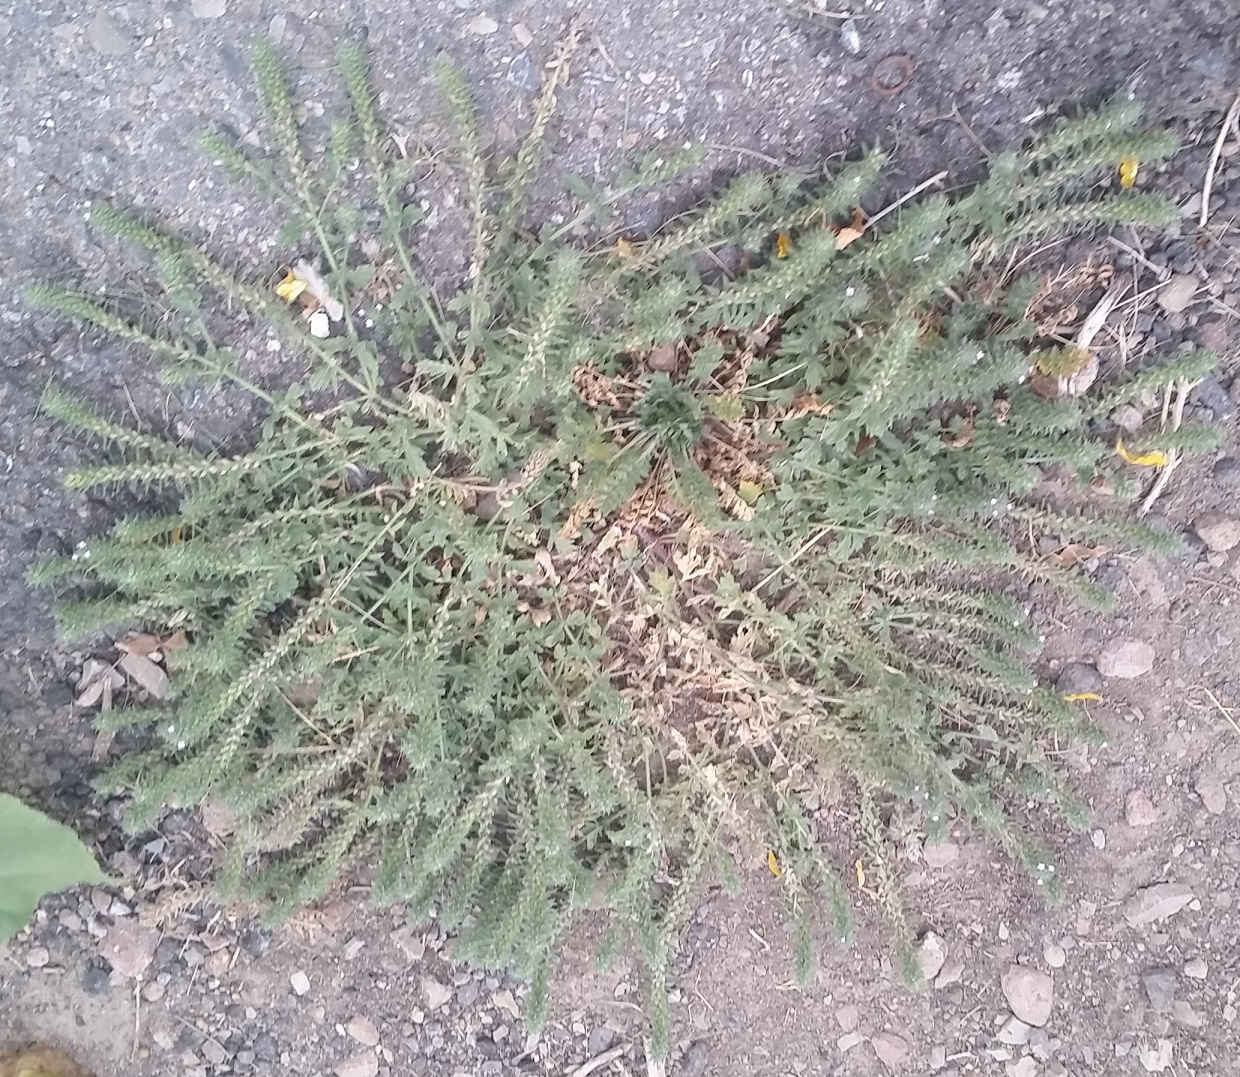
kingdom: Plantae
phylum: Tracheophyta
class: Magnoliopsida
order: Lamiales
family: Verbenaceae
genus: Verbena
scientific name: Verbena bracteata
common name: Bracted vervain
